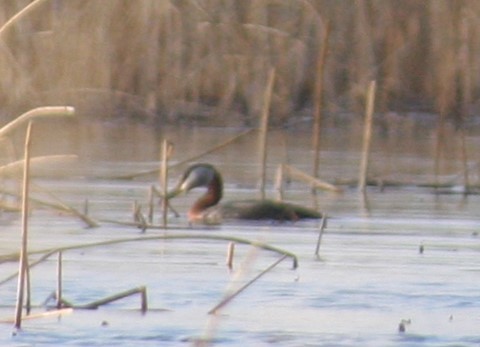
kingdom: Animalia
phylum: Chordata
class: Aves
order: Podicipediformes
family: Podicipedidae
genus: Podiceps
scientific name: Podiceps grisegena
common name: Red-necked grebe
